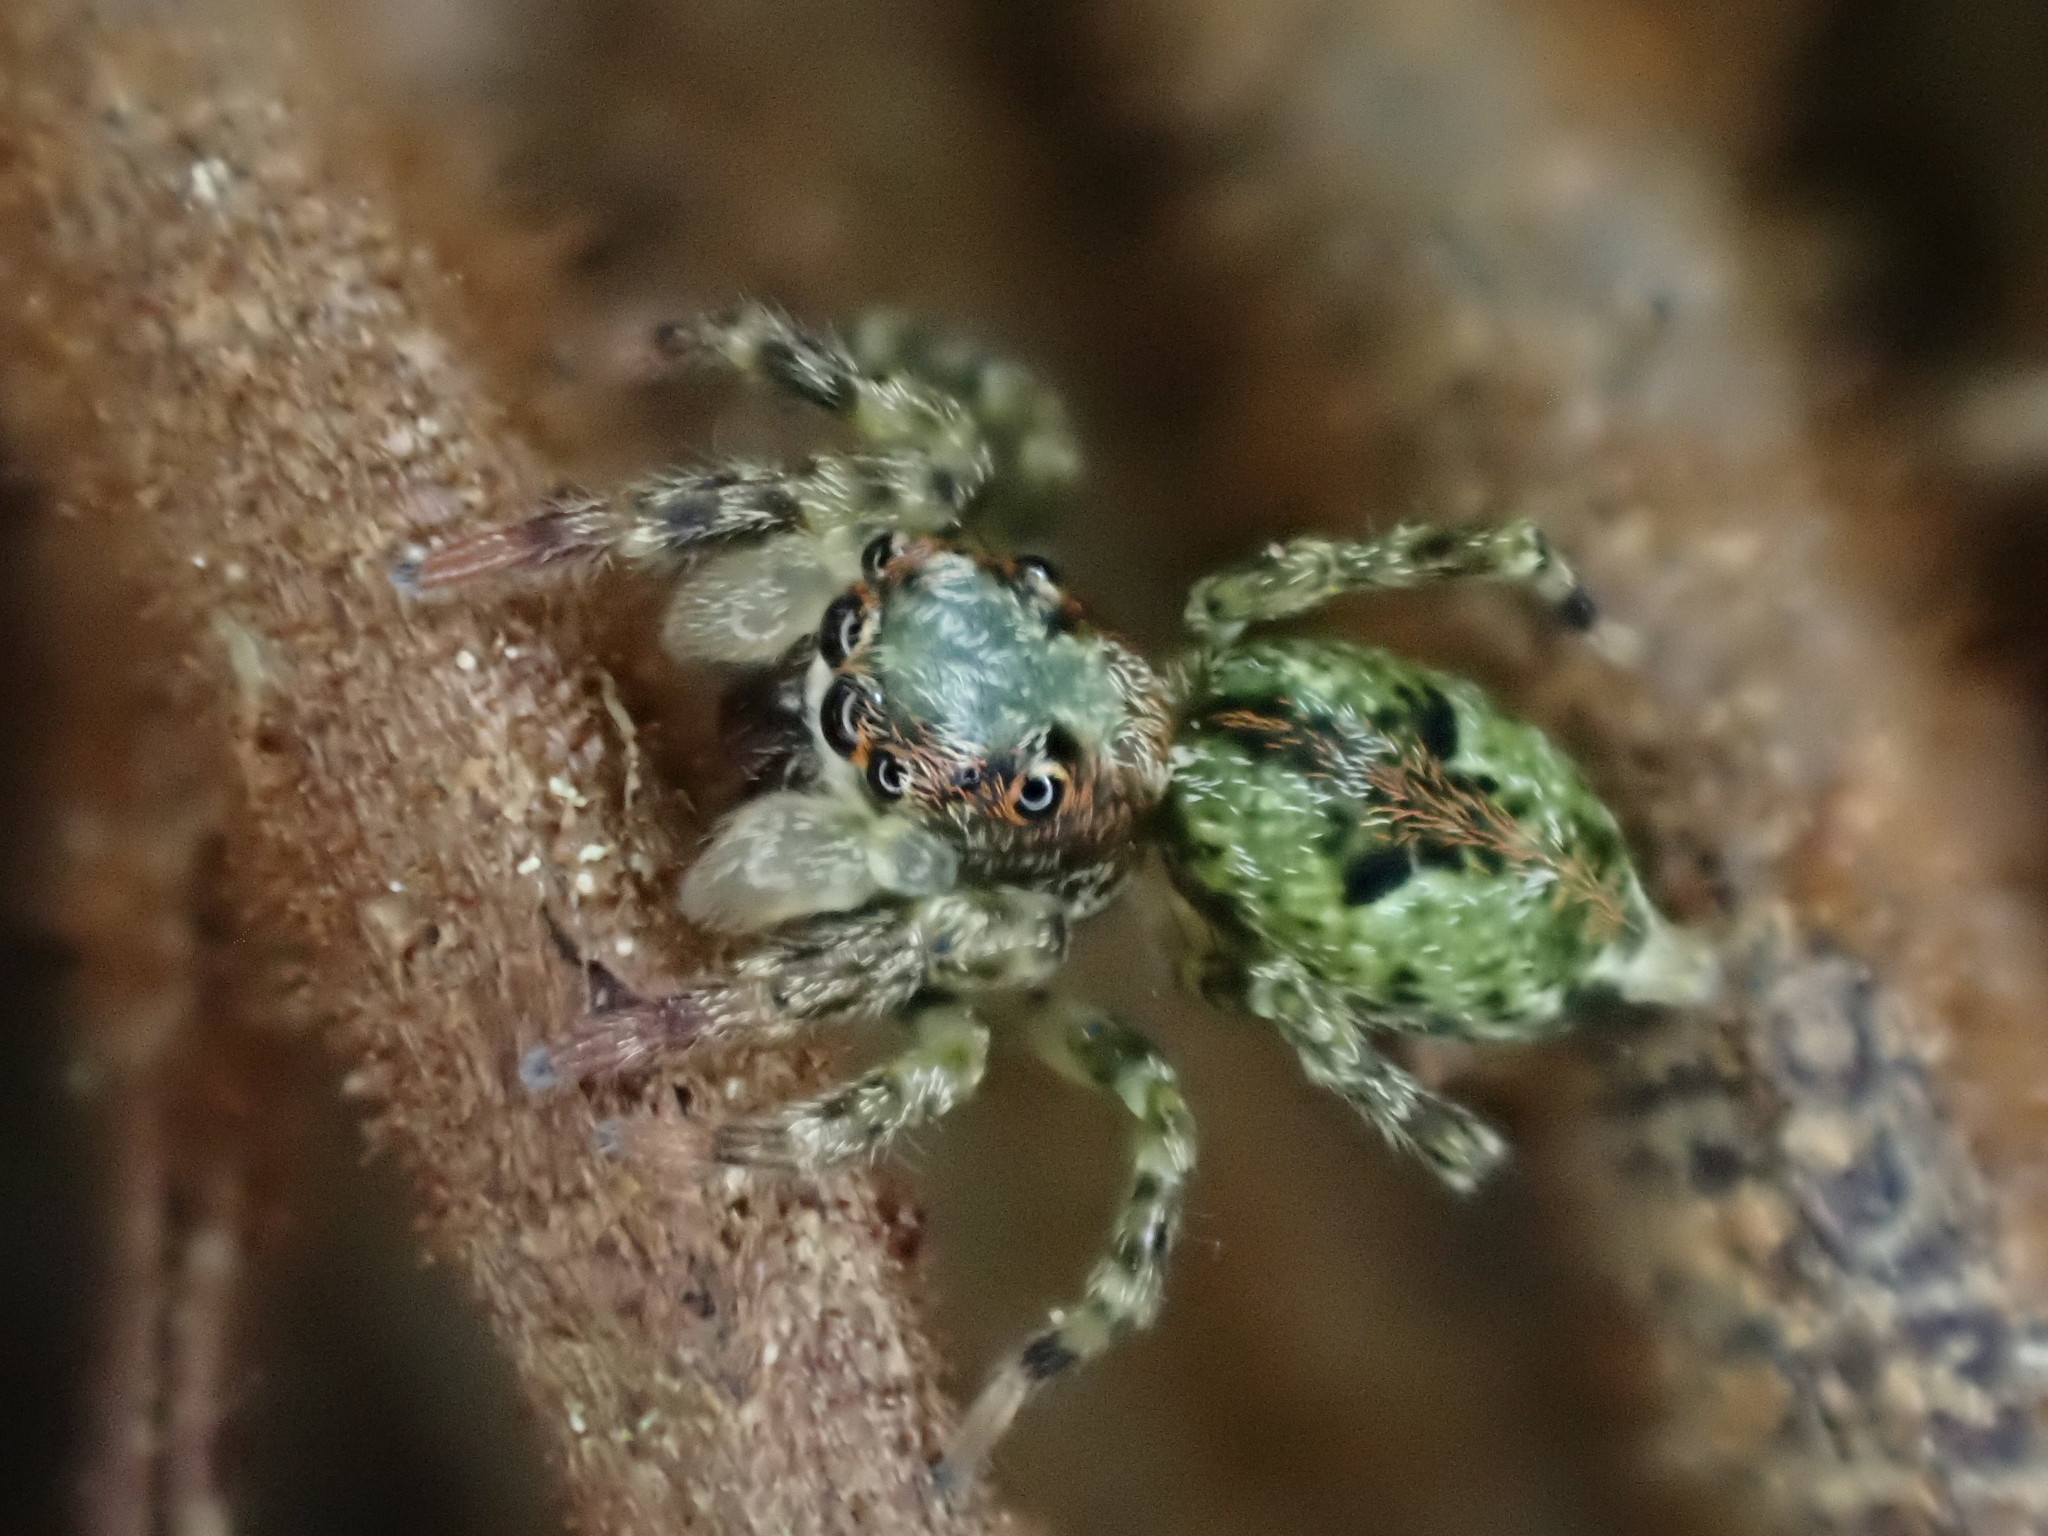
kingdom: Animalia
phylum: Arthropoda
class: Arachnida
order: Araneae
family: Salticidae
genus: Hinewaia
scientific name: Hinewaia embolica
